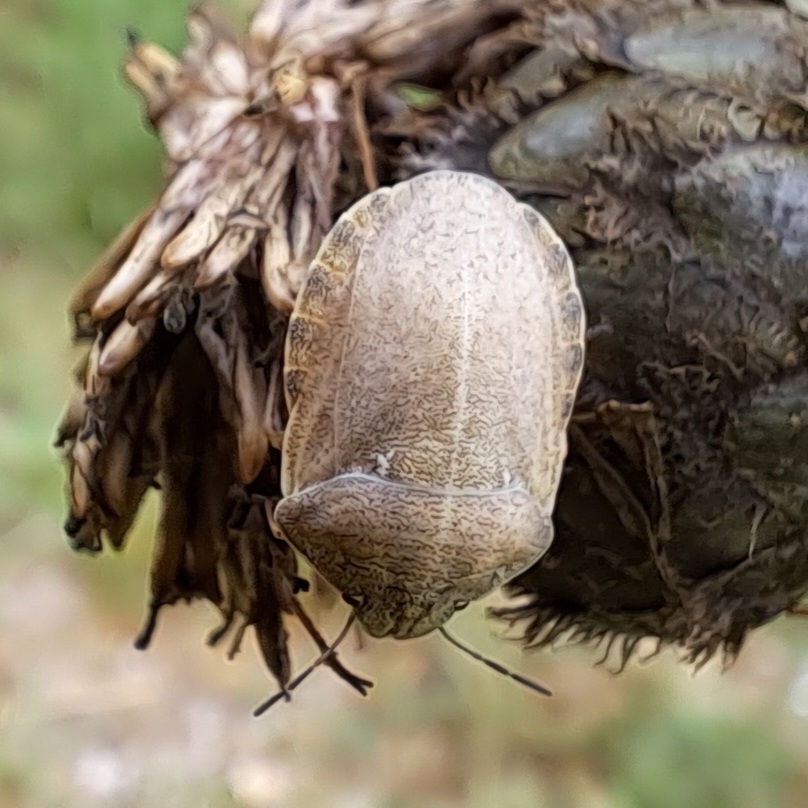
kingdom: Animalia
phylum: Arthropoda
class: Insecta
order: Hemiptera
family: Scutelleridae
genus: Eurygaster
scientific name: Eurygaster testudinaria
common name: Tortoise bug
